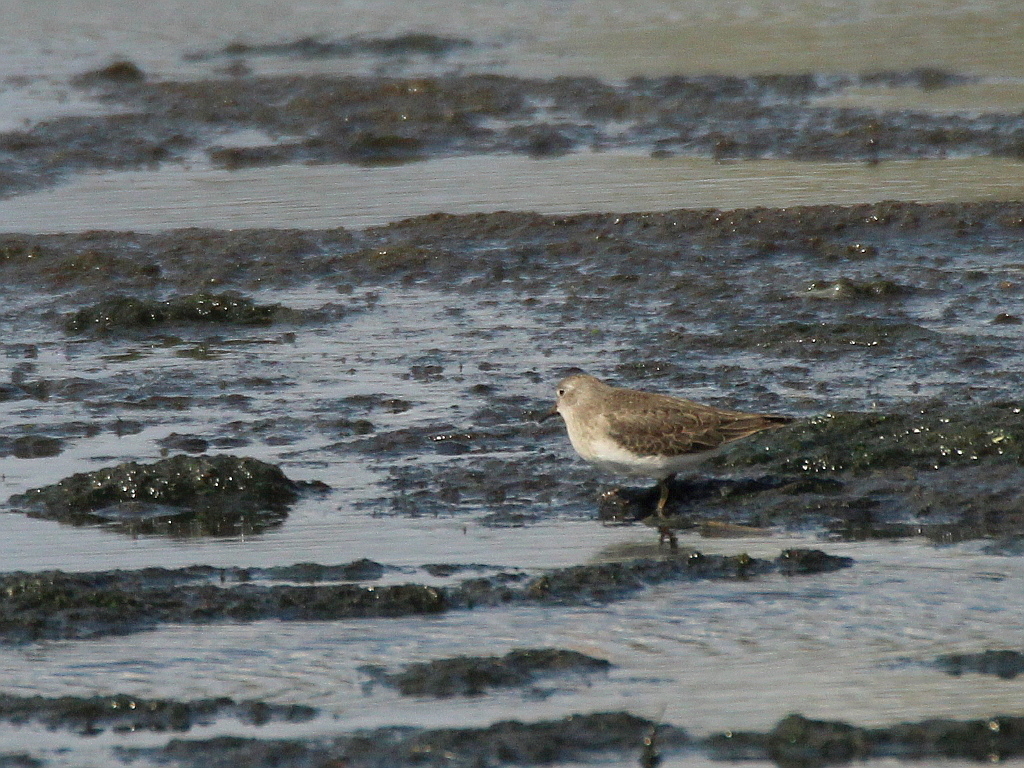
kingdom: Animalia
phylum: Chordata
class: Aves
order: Charadriiformes
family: Scolopacidae
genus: Calidris
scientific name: Calidris temminckii
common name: Temminck's stint
